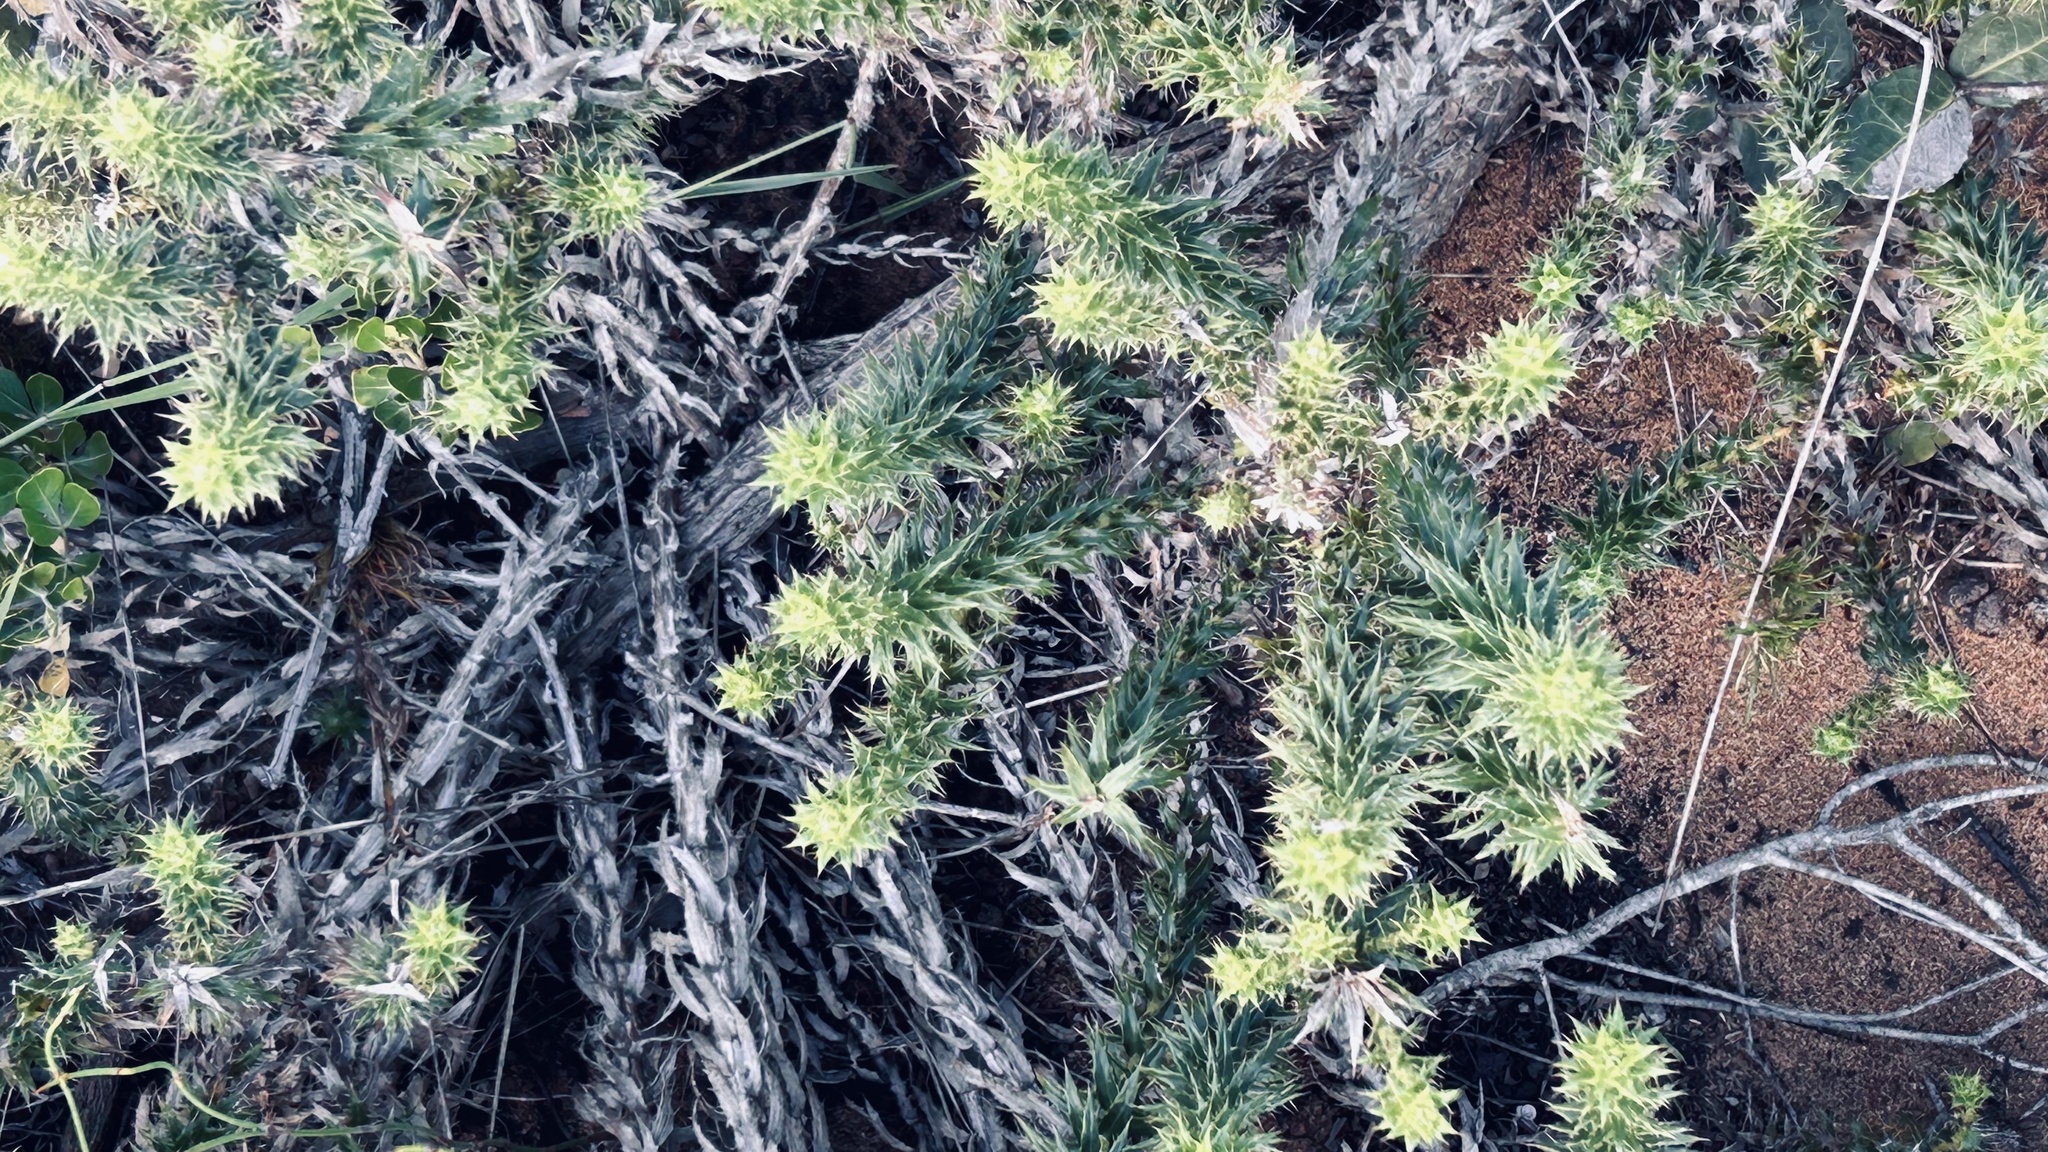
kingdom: Plantae
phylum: Tracheophyta
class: Magnoliopsida
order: Asterales
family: Asteraceae
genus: Cullumia
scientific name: Cullumia carlinoides
